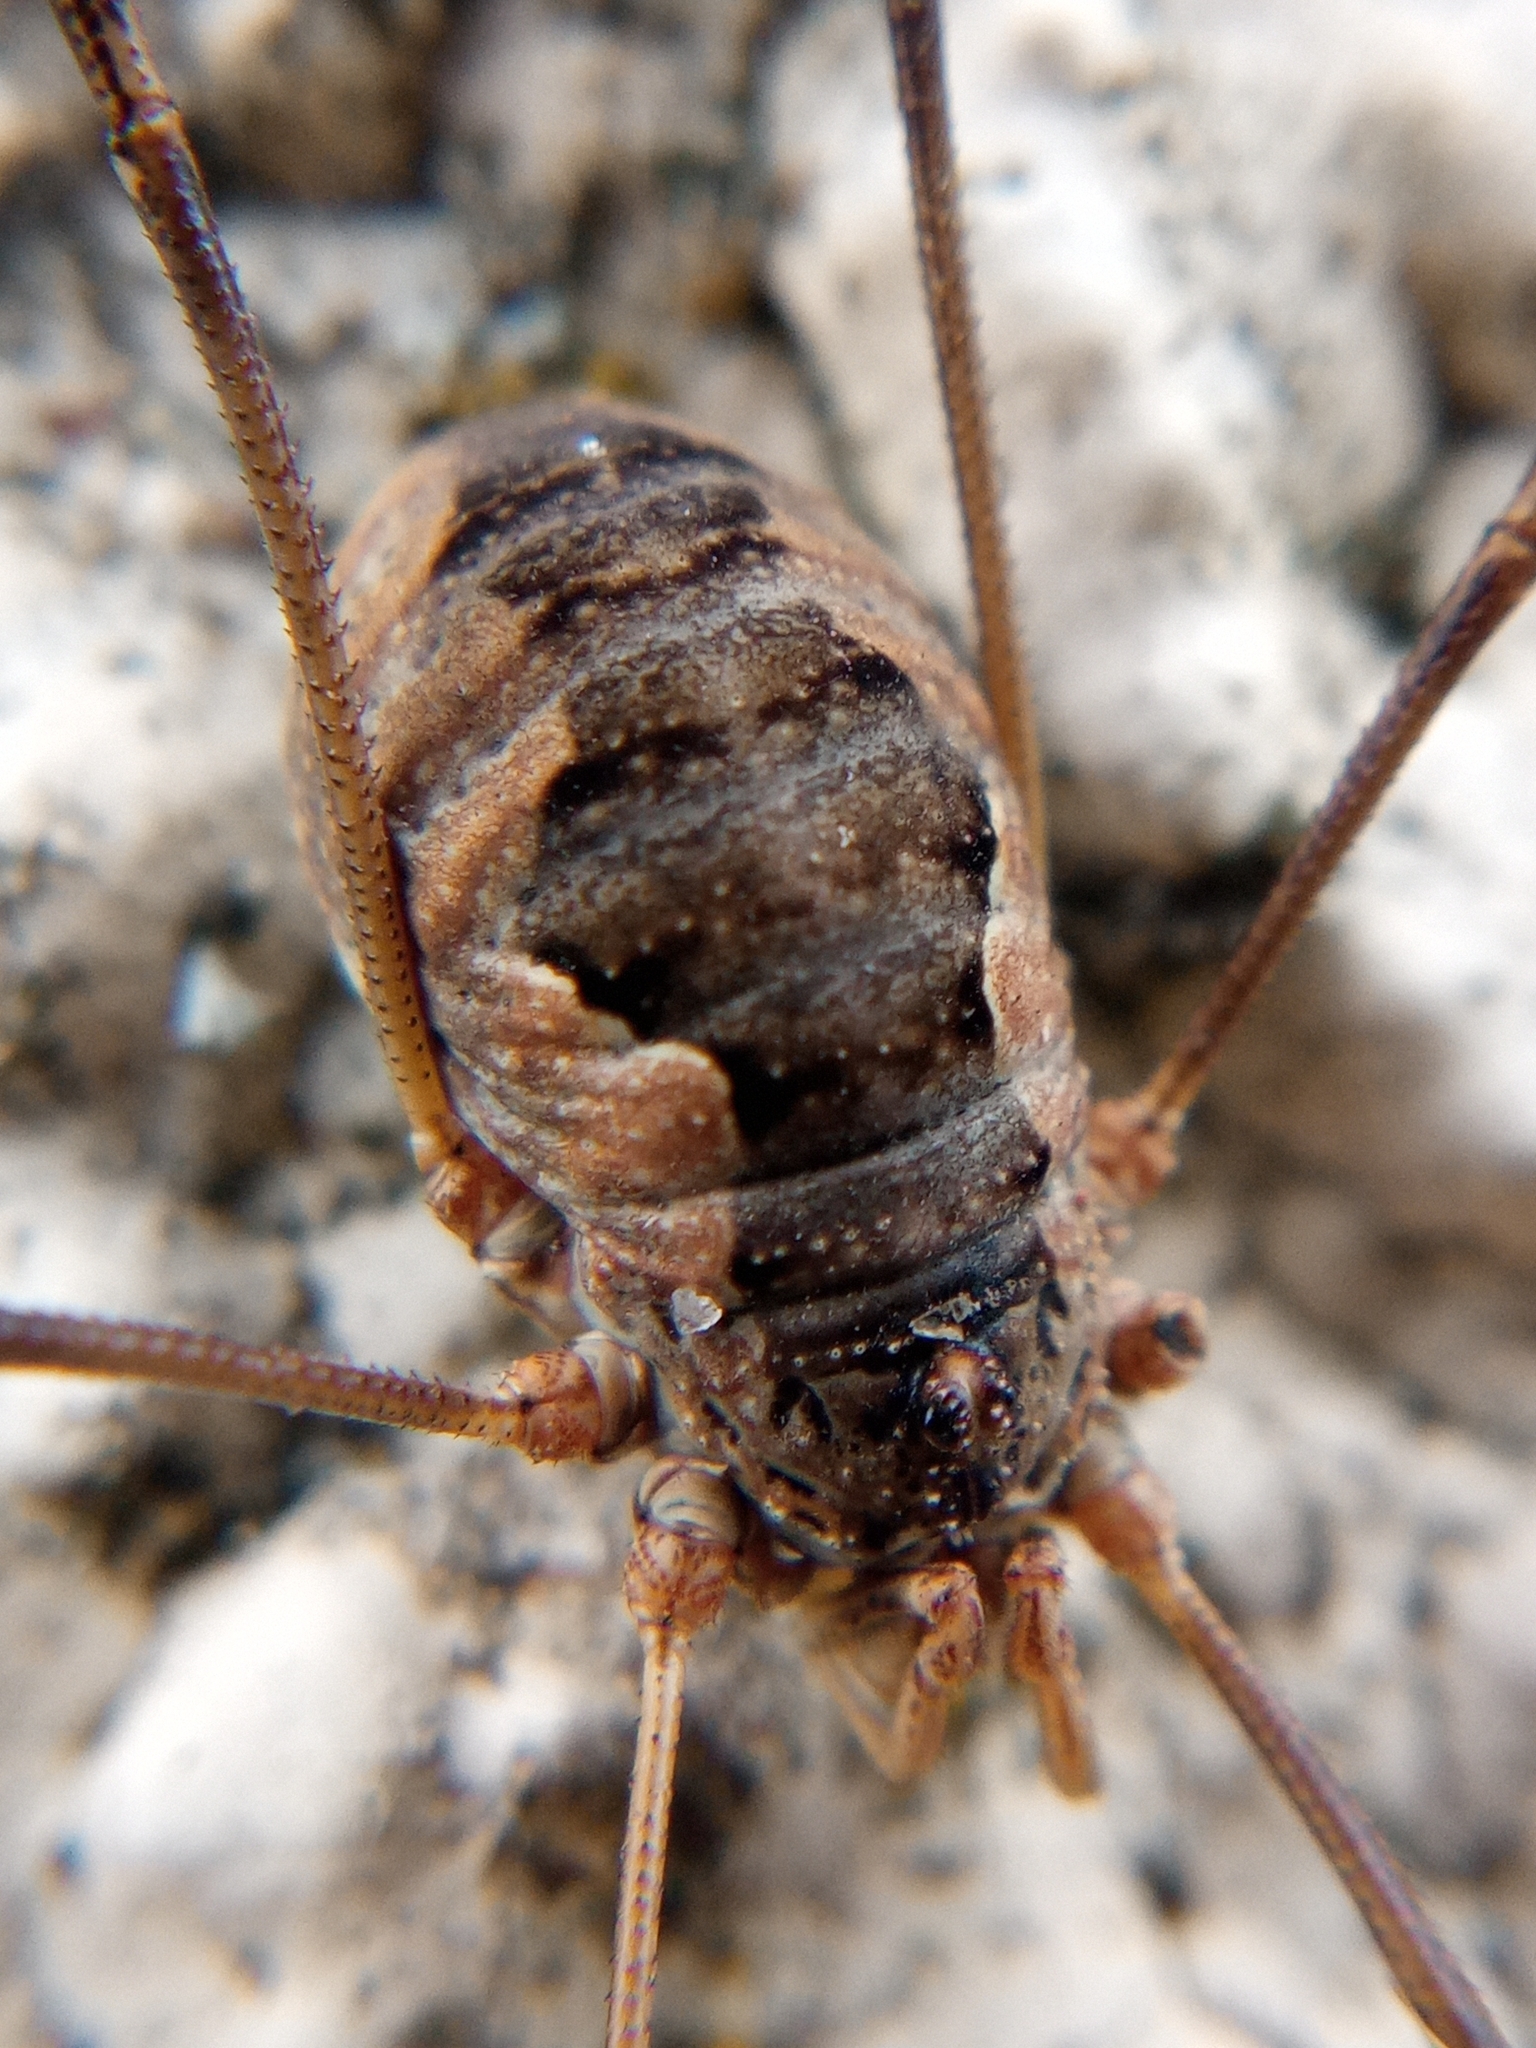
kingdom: Animalia
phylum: Arthropoda
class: Arachnida
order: Opiliones
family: Phalangiidae
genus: Phalangium
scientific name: Phalangium opilio
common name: Daddy longleg
